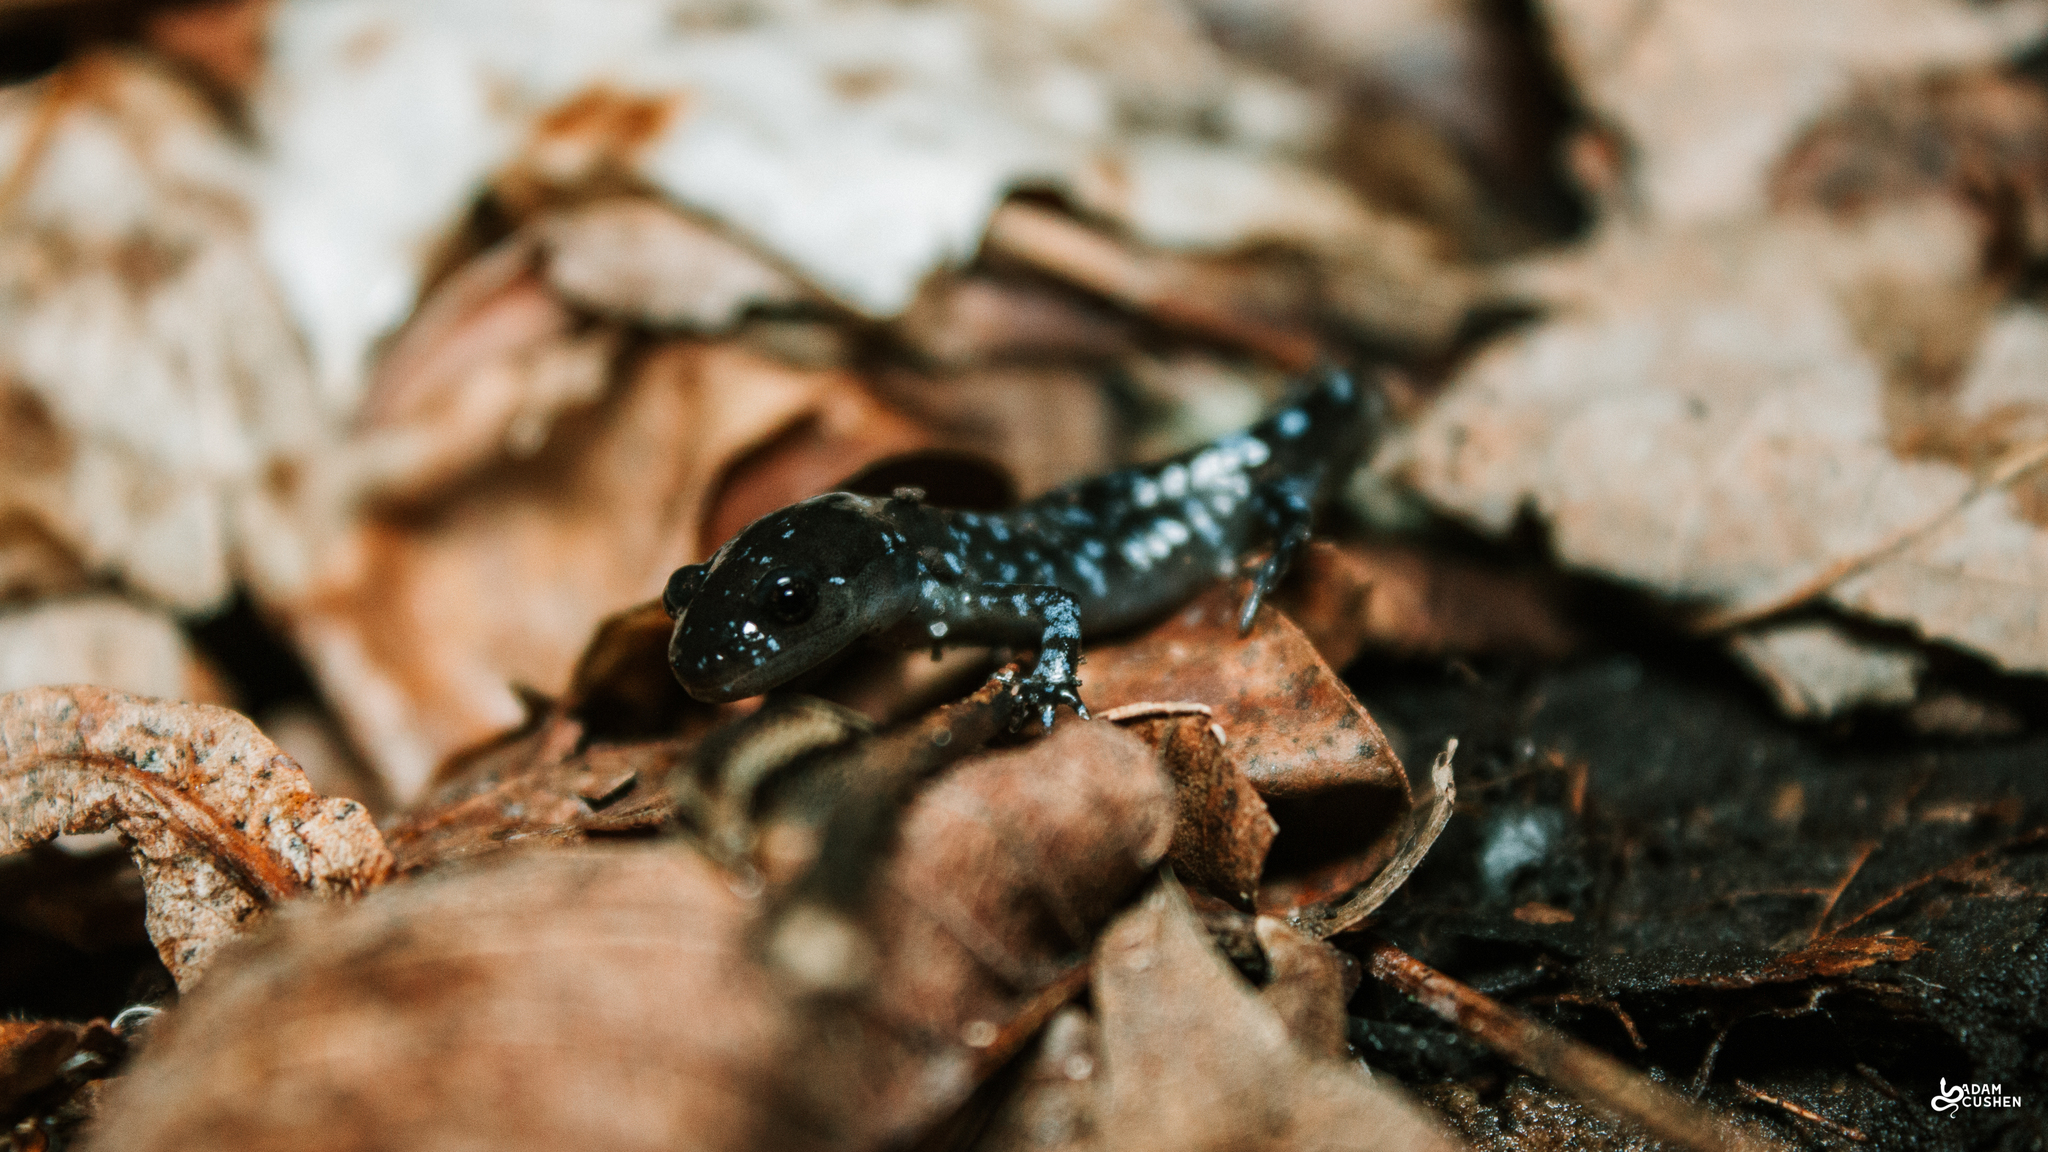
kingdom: Animalia
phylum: Chordata
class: Amphibia
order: Caudata
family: Ambystomatidae
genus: Ambystoma
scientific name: Ambystoma laterale
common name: Blue-spotted salamander
